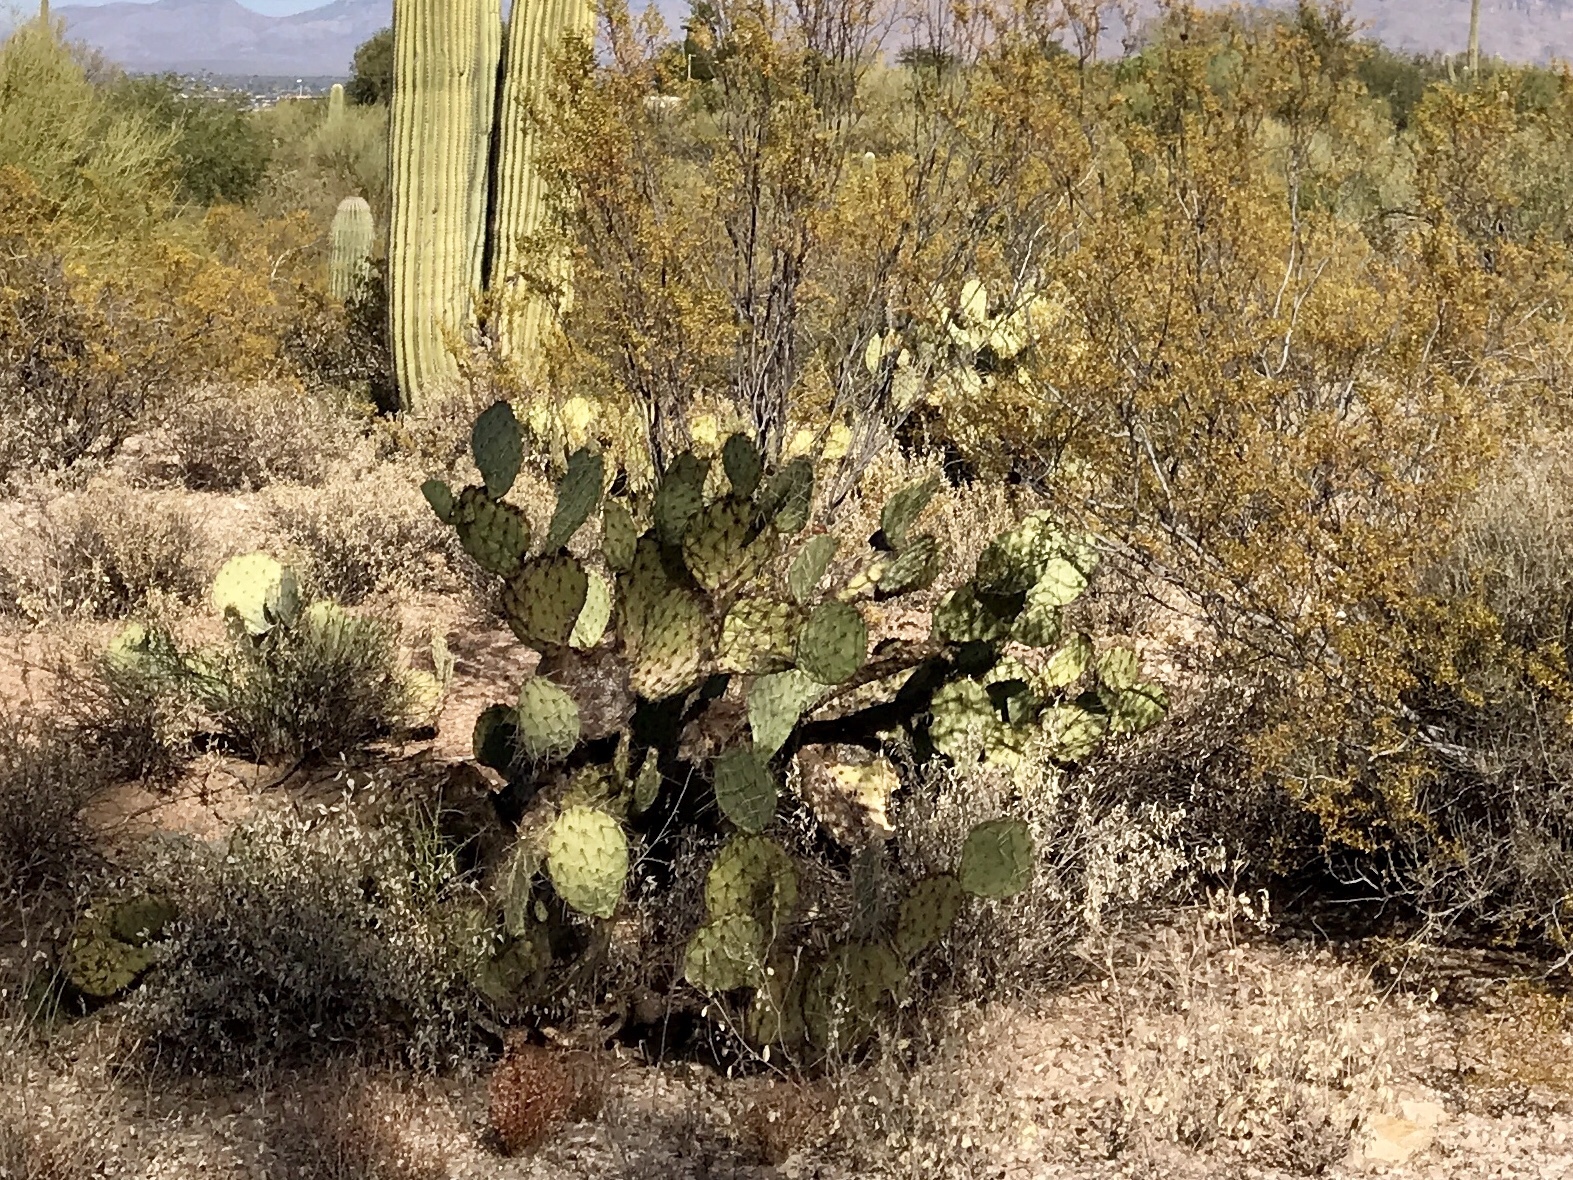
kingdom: Plantae
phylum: Tracheophyta
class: Magnoliopsida
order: Caryophyllales
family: Cactaceae
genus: Opuntia
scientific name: Opuntia engelmannii
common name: Cactus-apple
